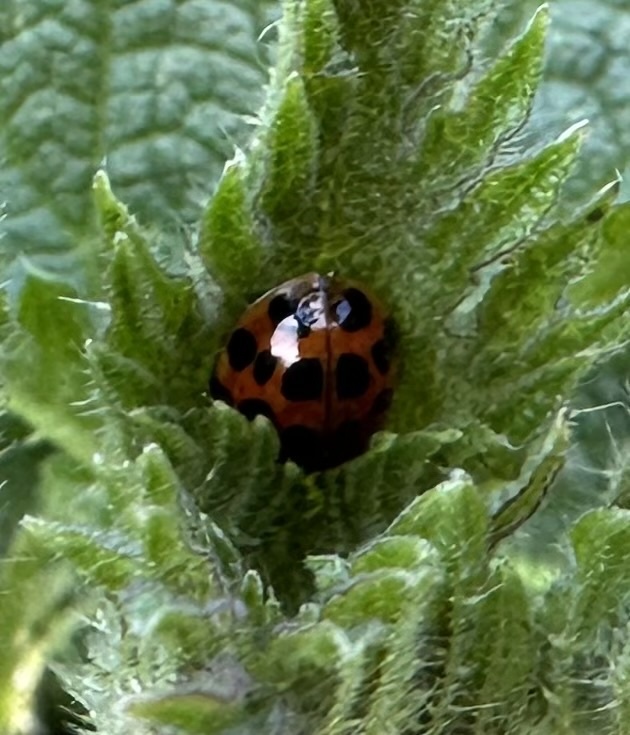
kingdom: Animalia
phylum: Arthropoda
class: Insecta
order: Coleoptera
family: Coccinellidae
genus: Harmonia
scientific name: Harmonia axyridis
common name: Harlequin ladybird
